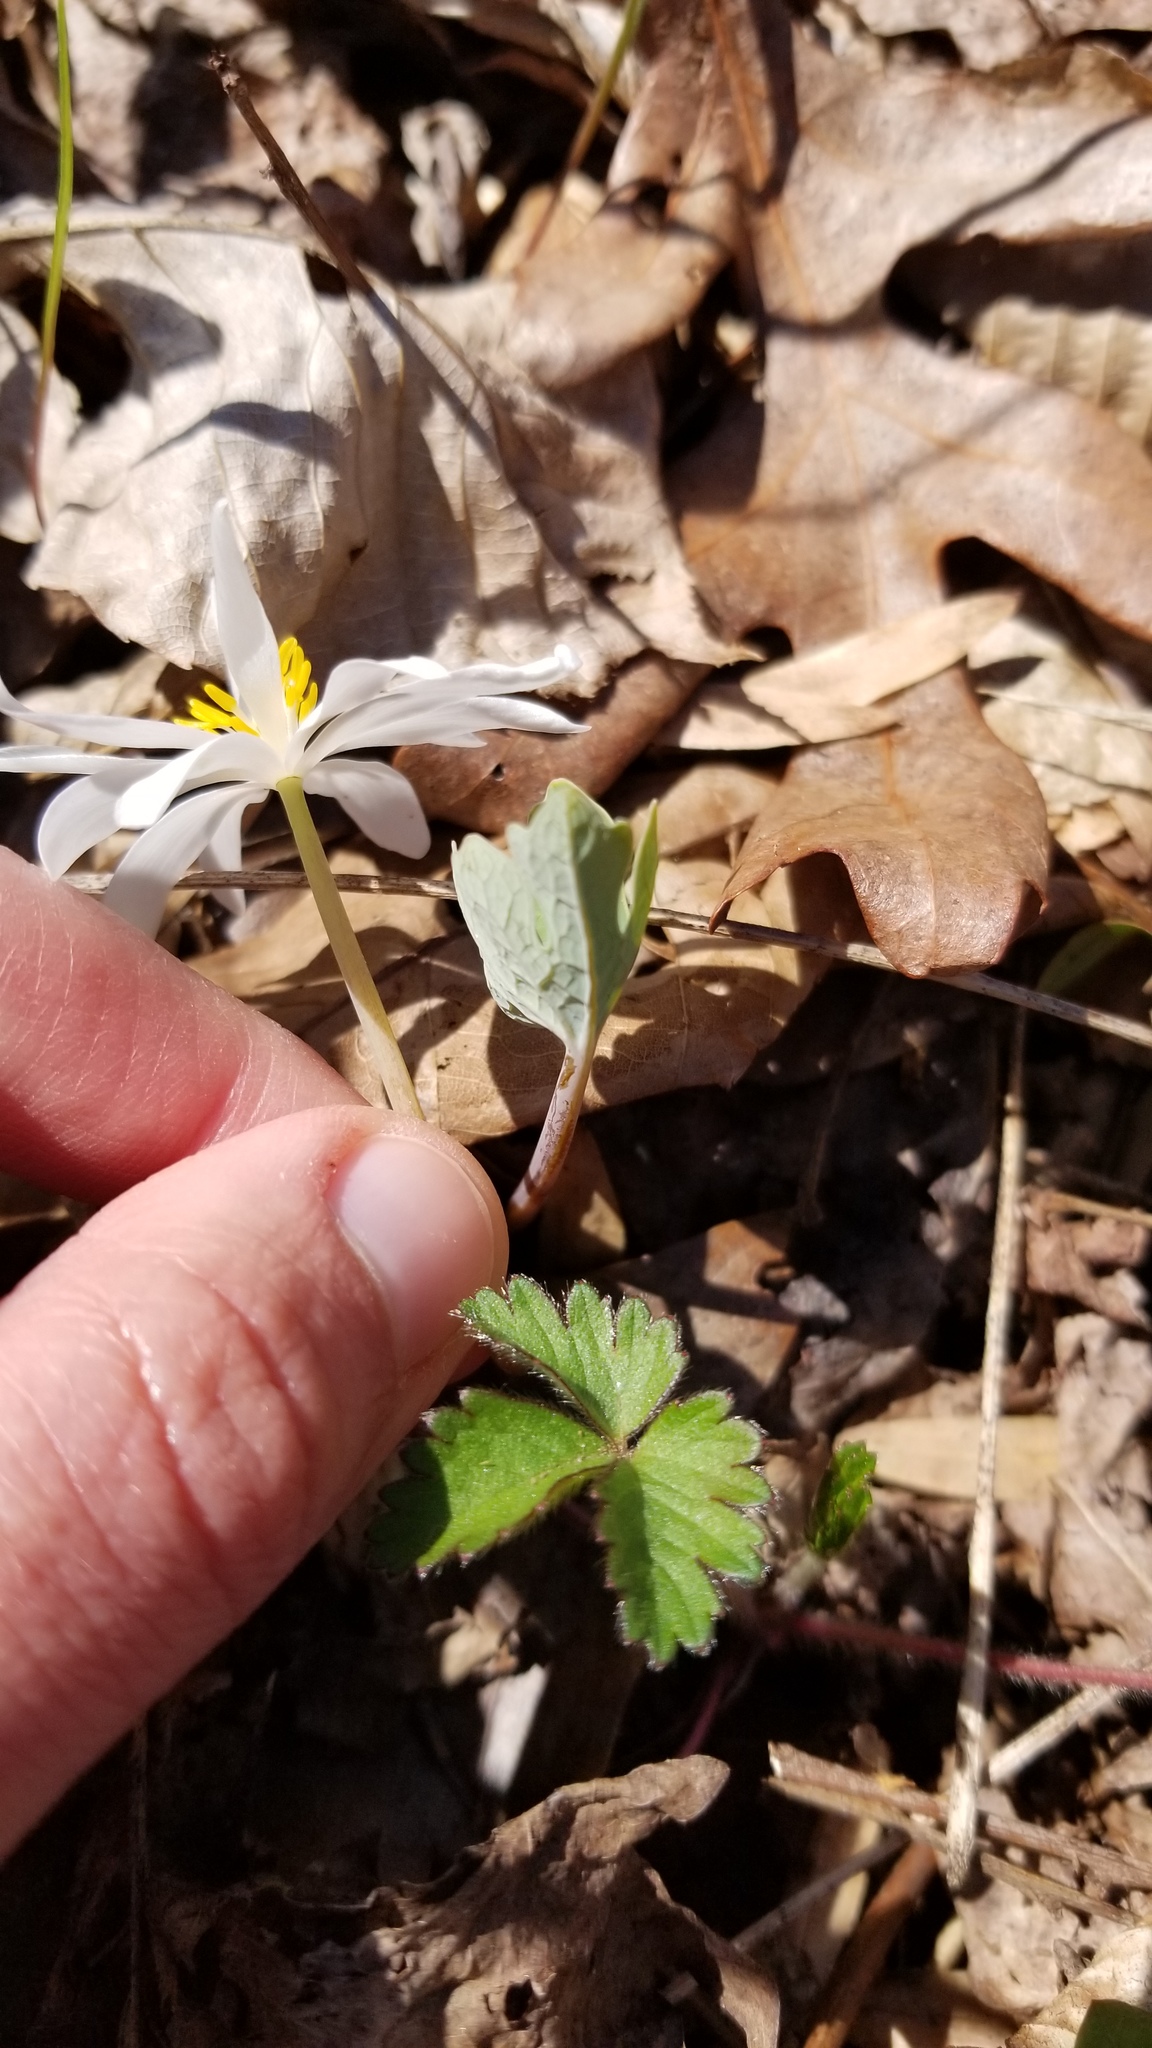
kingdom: Plantae
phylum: Tracheophyta
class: Magnoliopsida
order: Ranunculales
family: Papaveraceae
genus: Sanguinaria
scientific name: Sanguinaria canadensis
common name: Bloodroot
